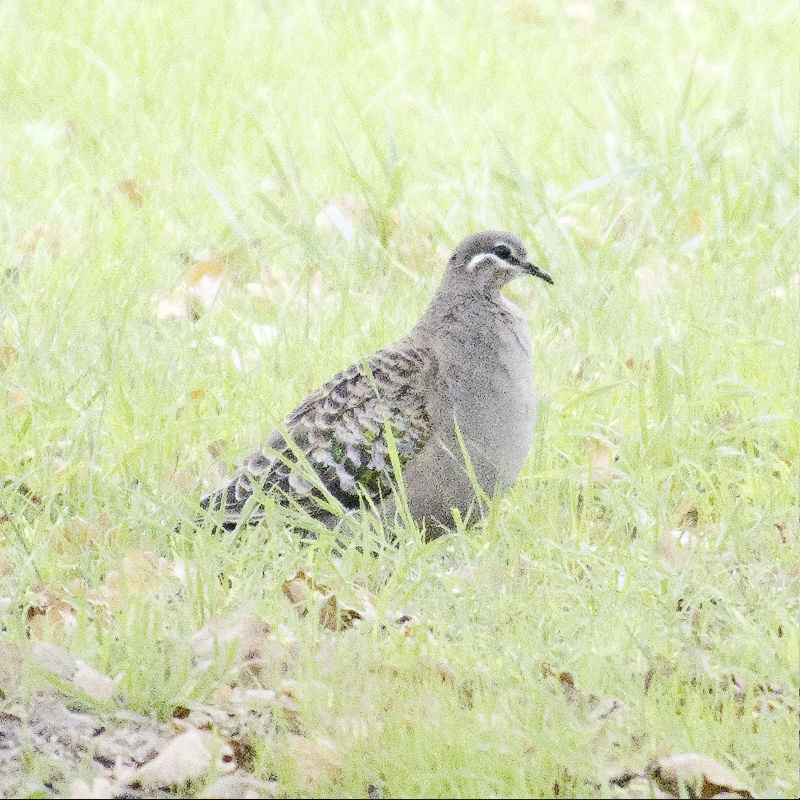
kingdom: Animalia
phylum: Chordata
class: Aves
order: Columbiformes
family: Columbidae
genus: Phaps
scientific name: Phaps chalcoptera
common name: Common bronzewing
